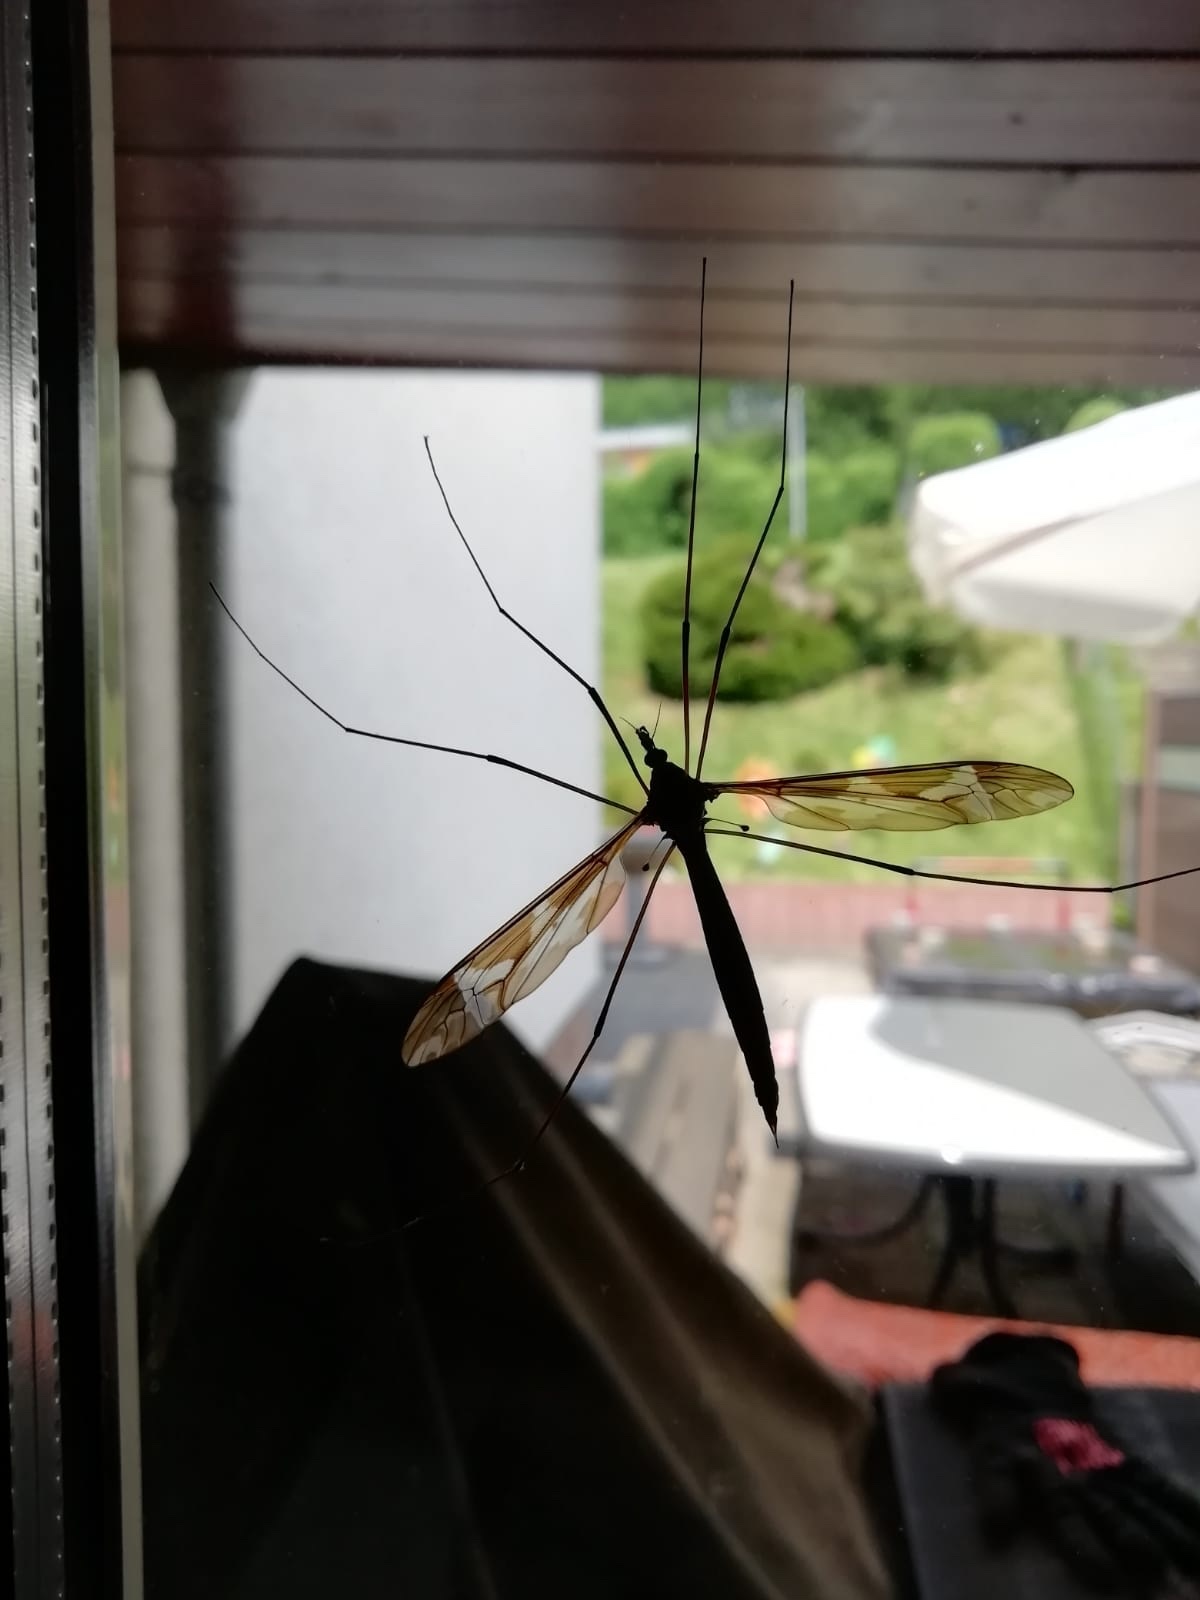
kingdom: Animalia
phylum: Arthropoda
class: Insecta
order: Diptera
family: Tipulidae
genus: Tipula
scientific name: Tipula maxima
